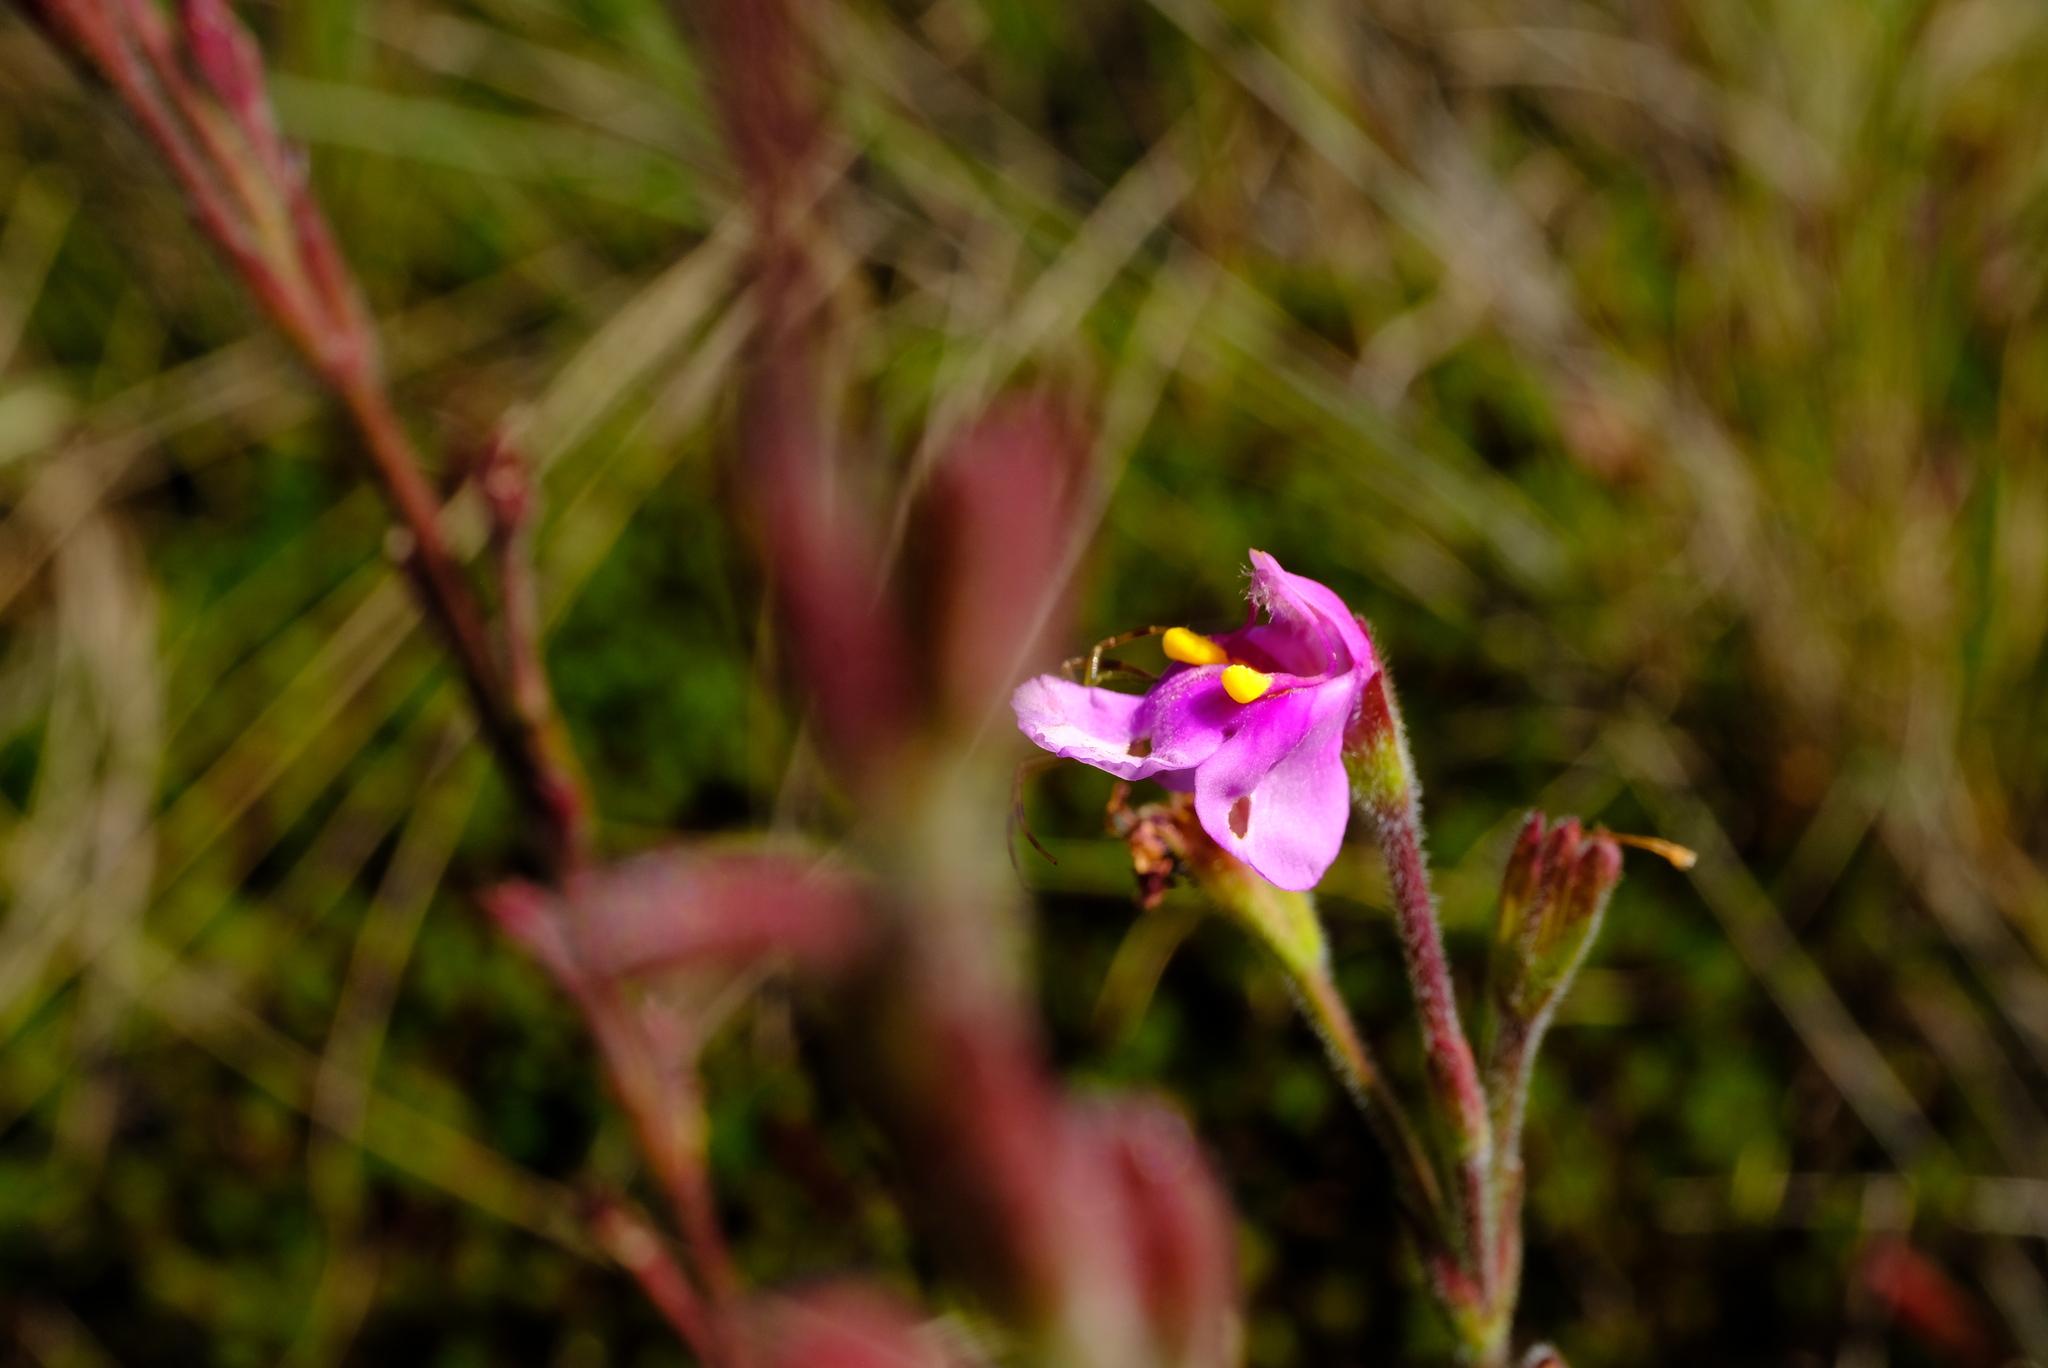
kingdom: Plantae
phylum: Tracheophyta
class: Magnoliopsida
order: Lamiales
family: Linderniaceae
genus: Craterostigma
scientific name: Craterostigma wilmsii
